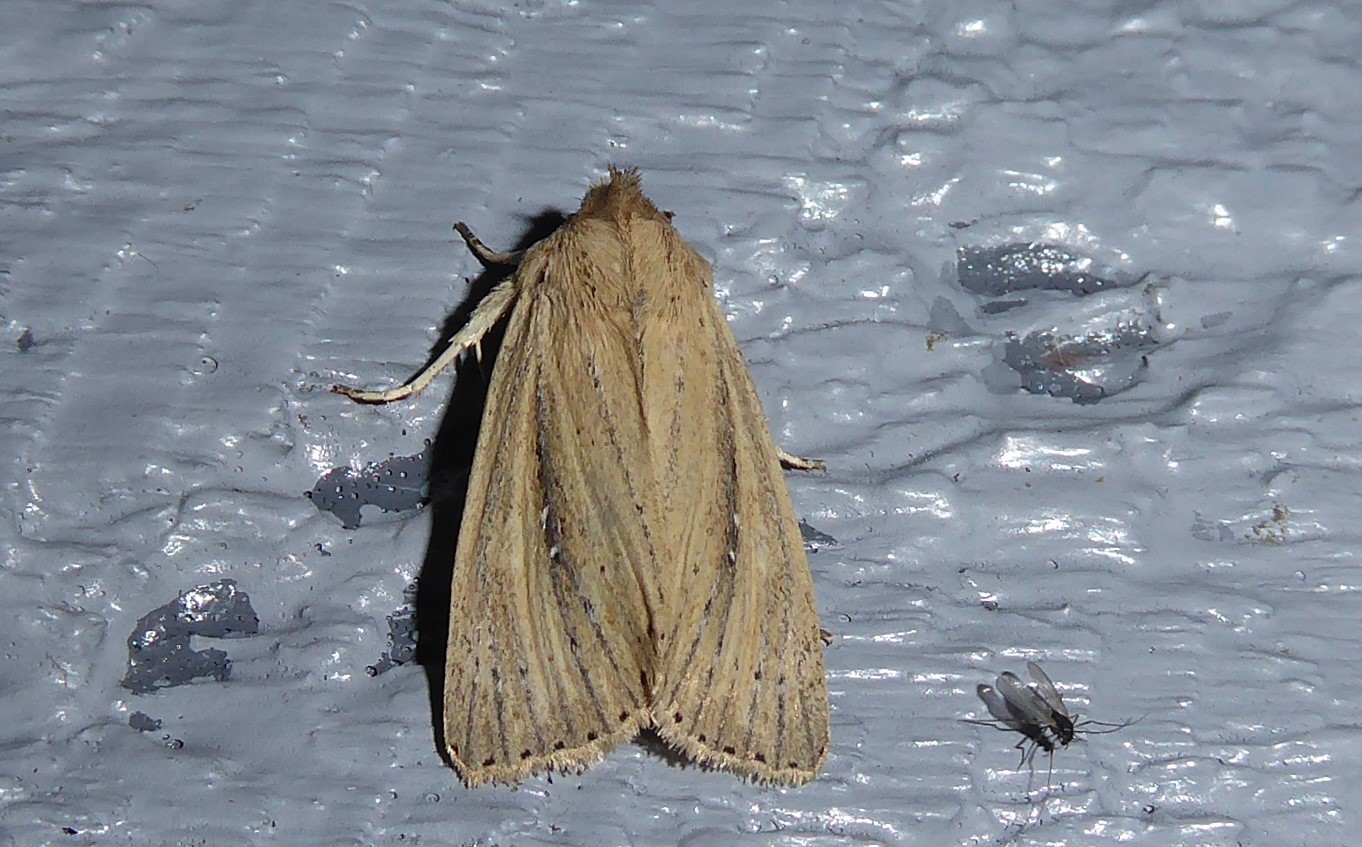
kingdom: Animalia
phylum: Arthropoda
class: Insecta
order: Lepidoptera
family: Noctuidae
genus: Ichneutica
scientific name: Ichneutica
